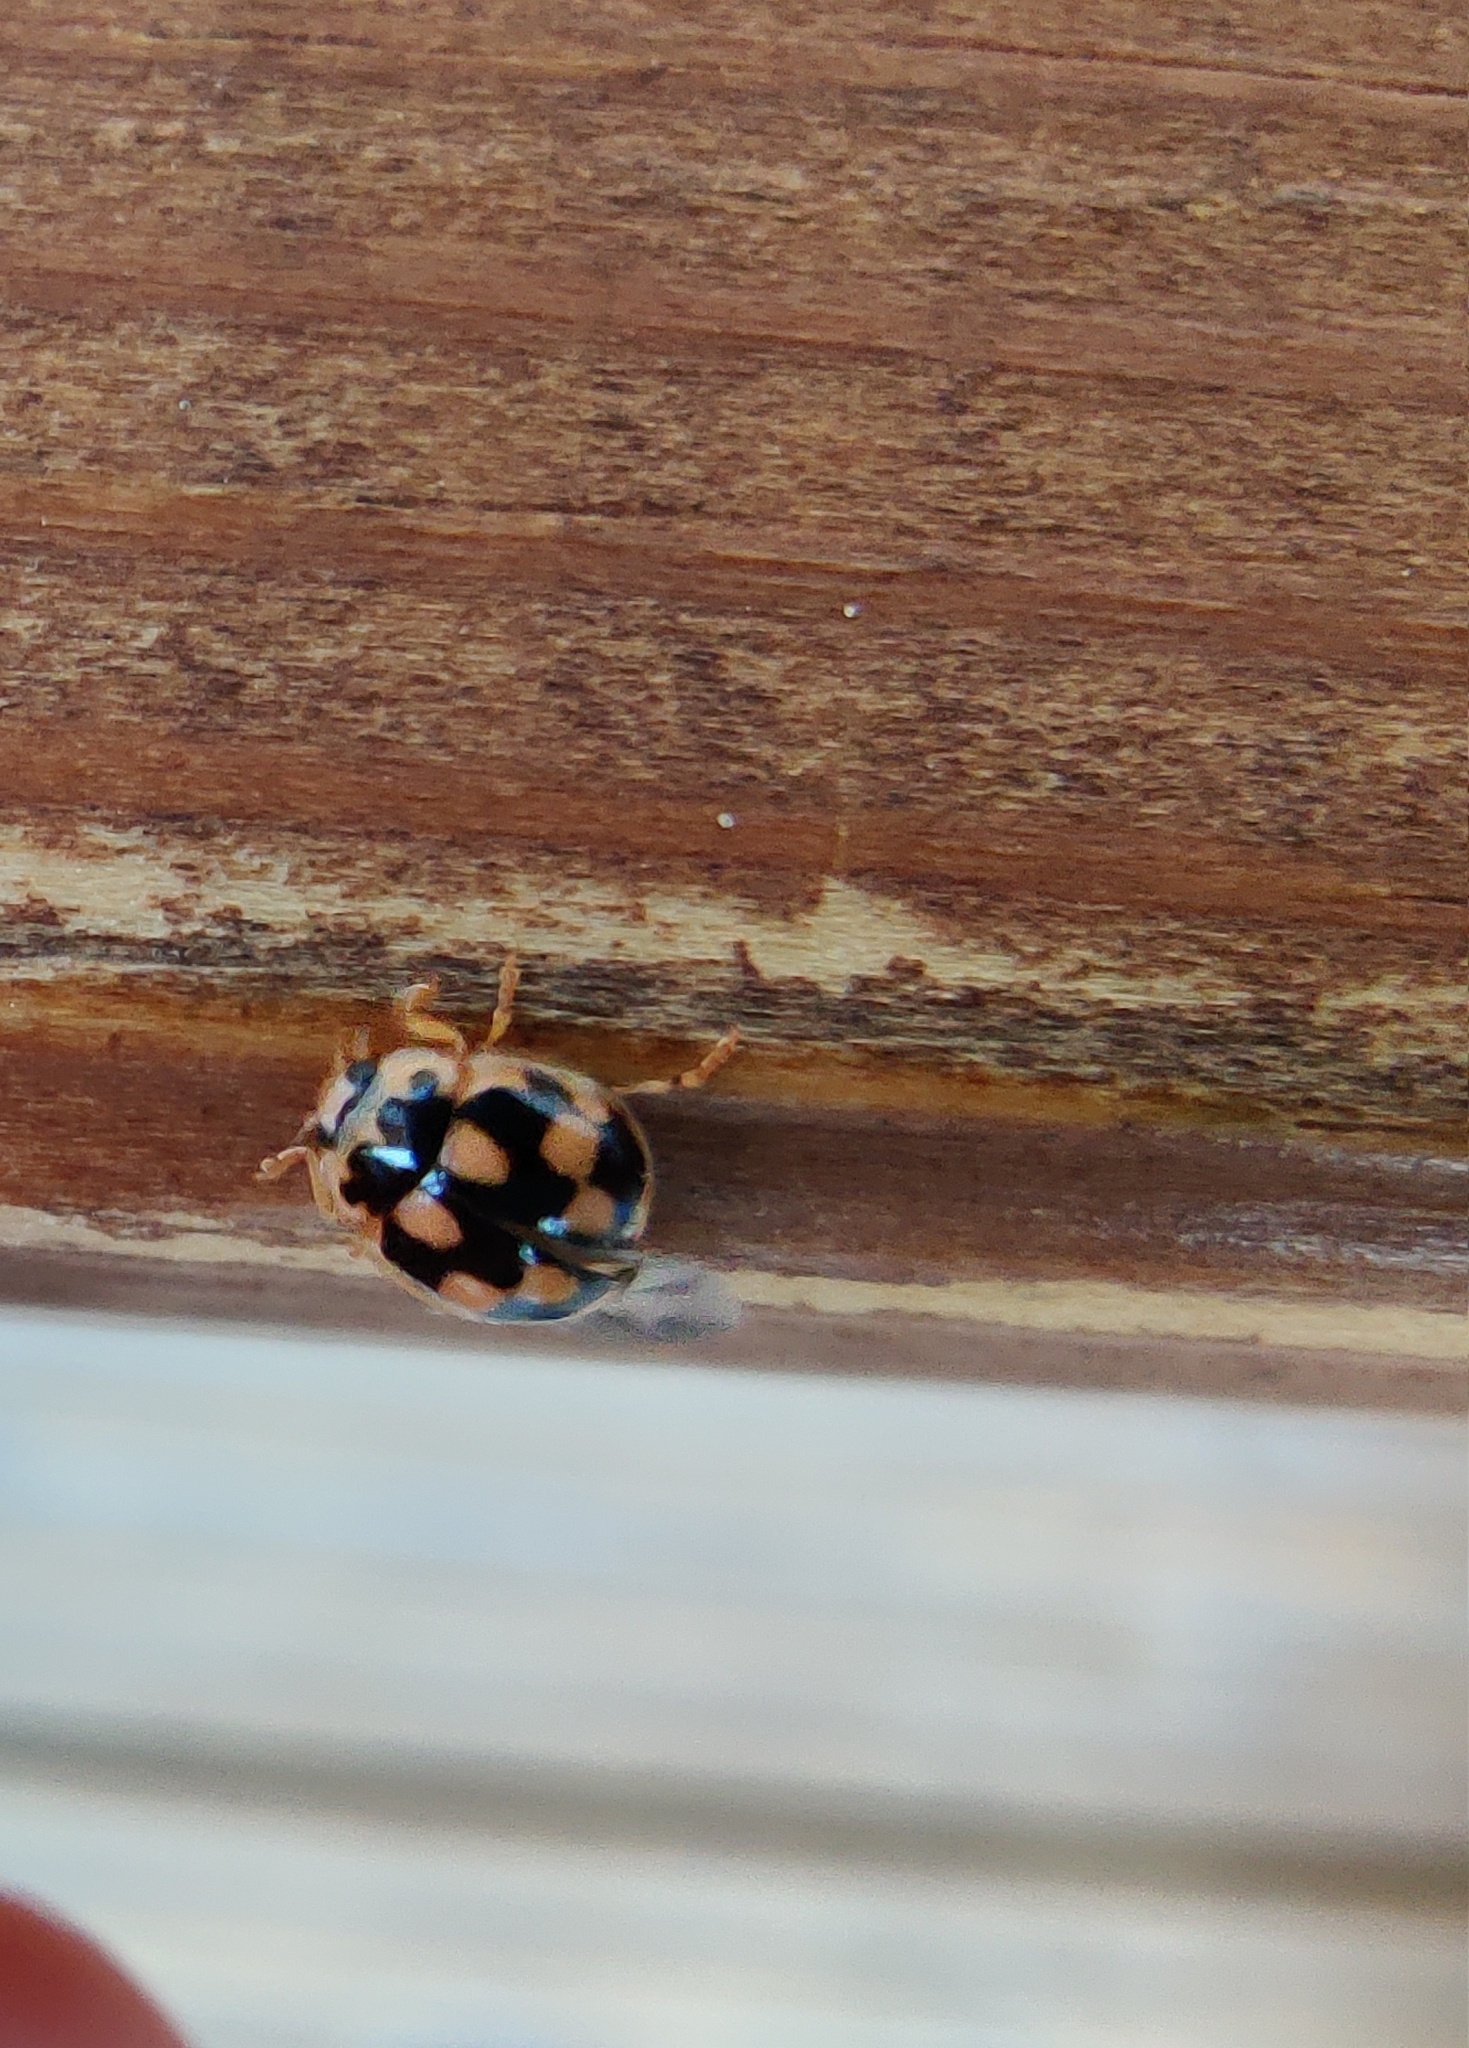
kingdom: Animalia
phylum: Arthropoda
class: Insecta
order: Coleoptera
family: Coccinellidae
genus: Propylaea
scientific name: Propylaea quatuordecimpunctata
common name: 14-spotted ladybird beetle
